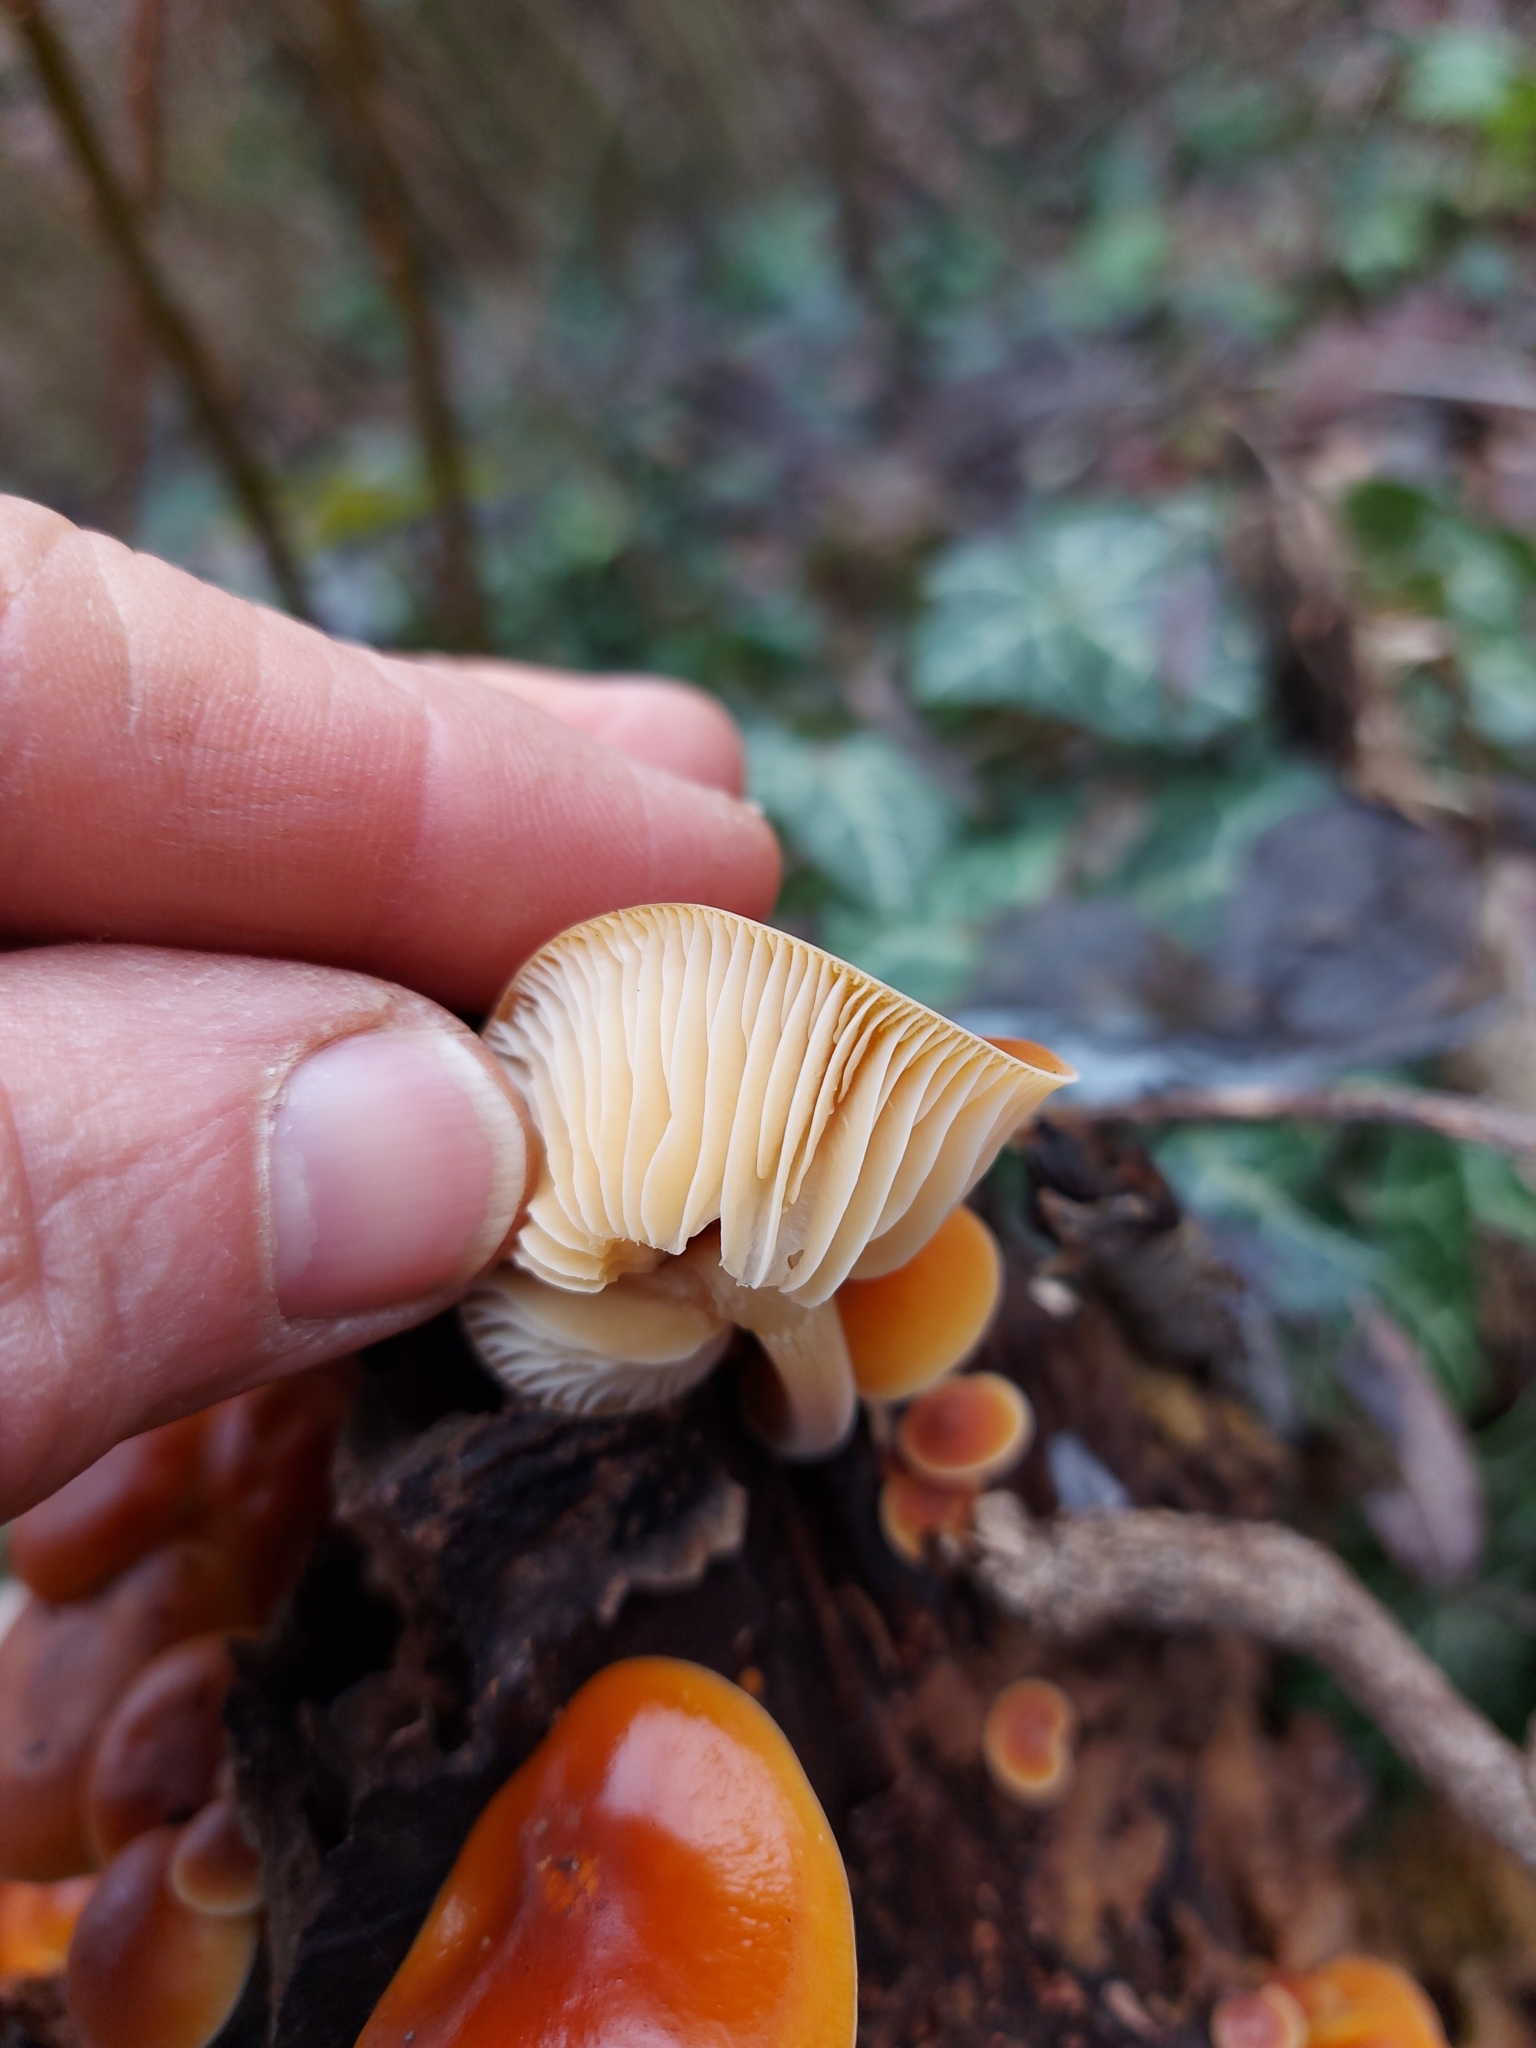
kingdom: Fungi
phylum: Basidiomycota
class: Agaricomycetes
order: Agaricales
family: Physalacriaceae
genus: Flammulina
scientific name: Flammulina
